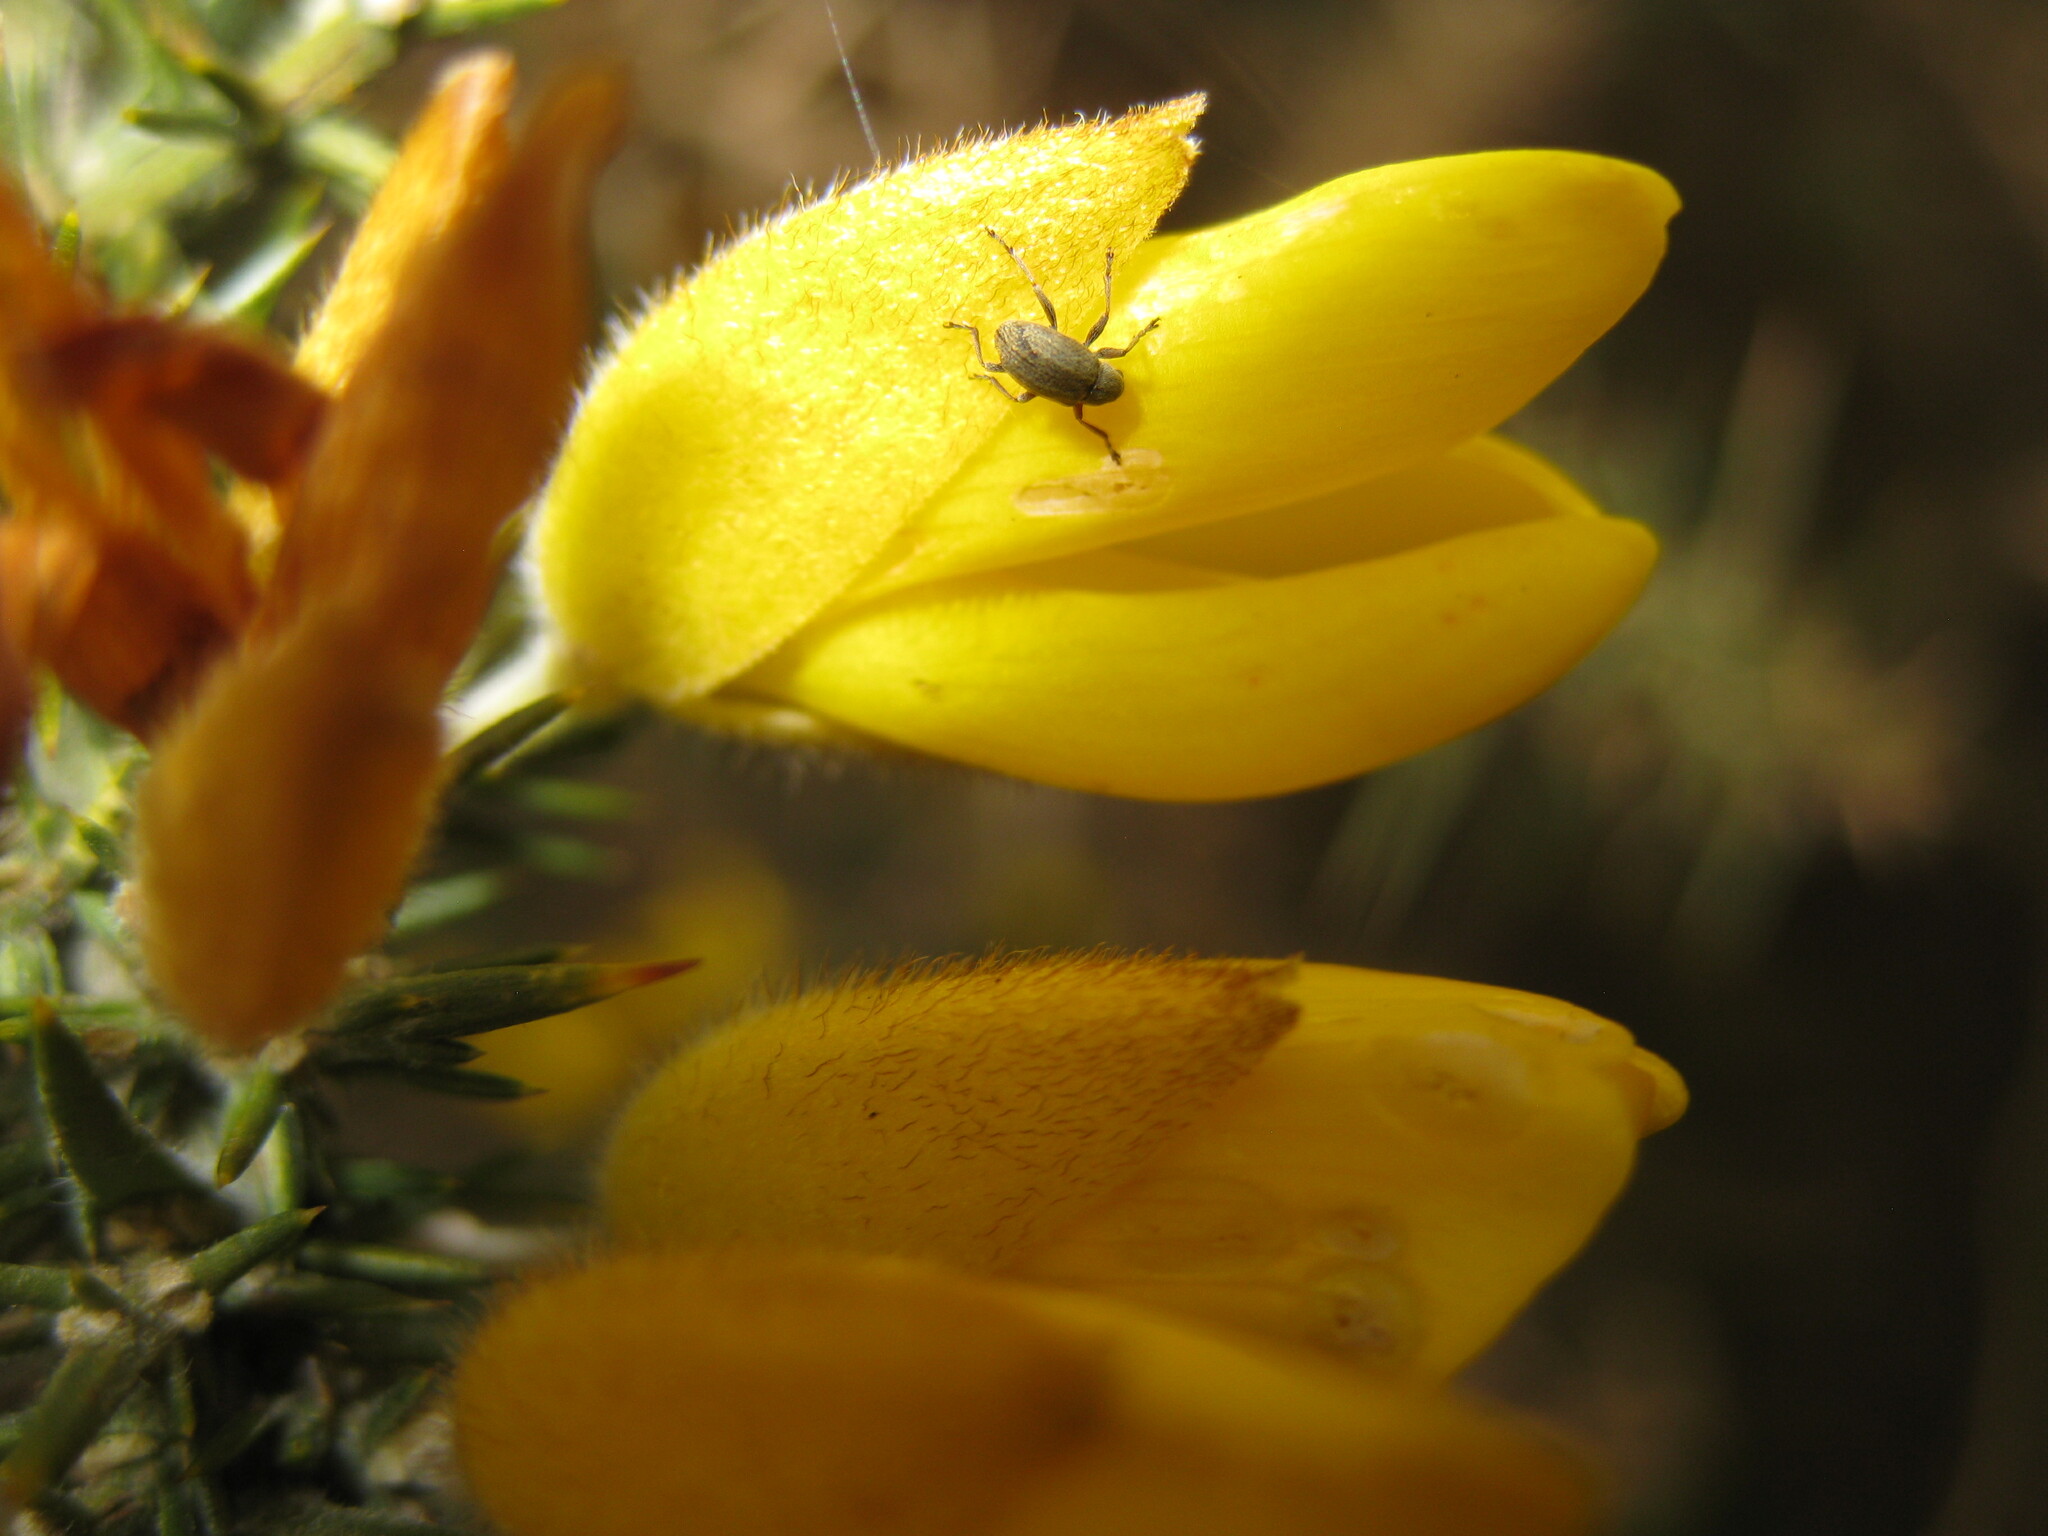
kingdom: Animalia
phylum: Arthropoda
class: Insecta
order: Coleoptera
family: Brentidae
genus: Exapion
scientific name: Exapion ulicis
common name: Gorse seed weevil
